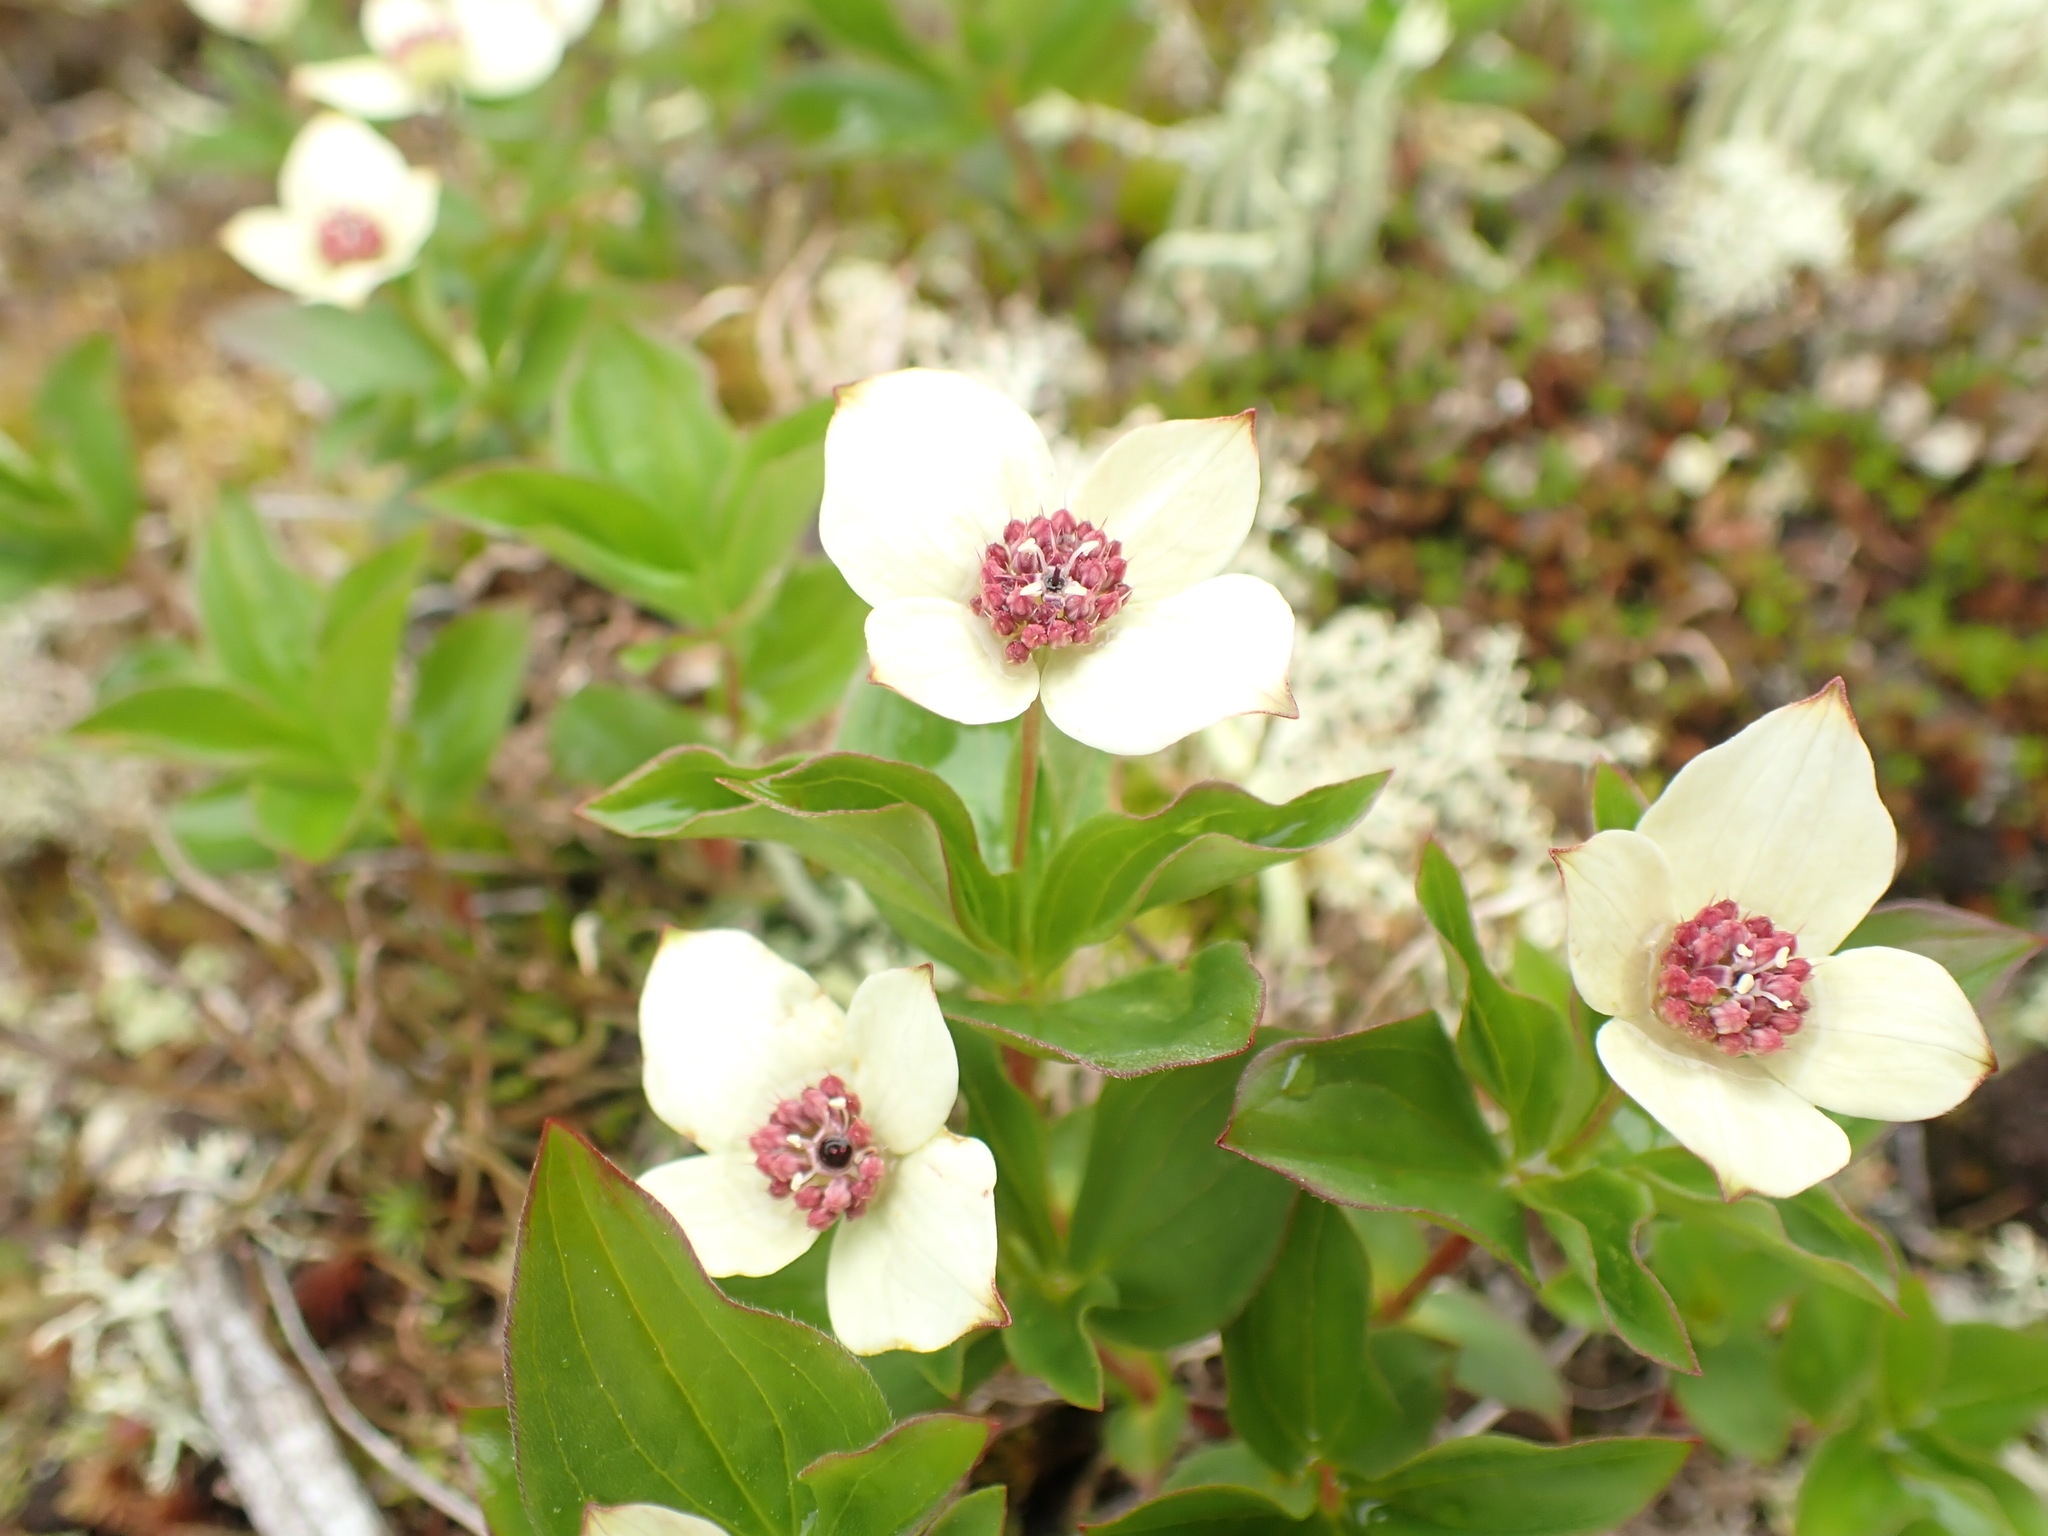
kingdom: Plantae
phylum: Tracheophyta
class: Magnoliopsida
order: Cornales
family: Cornaceae
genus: Cornus
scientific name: Cornus unalaschkensis
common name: Alaska bunchberry
